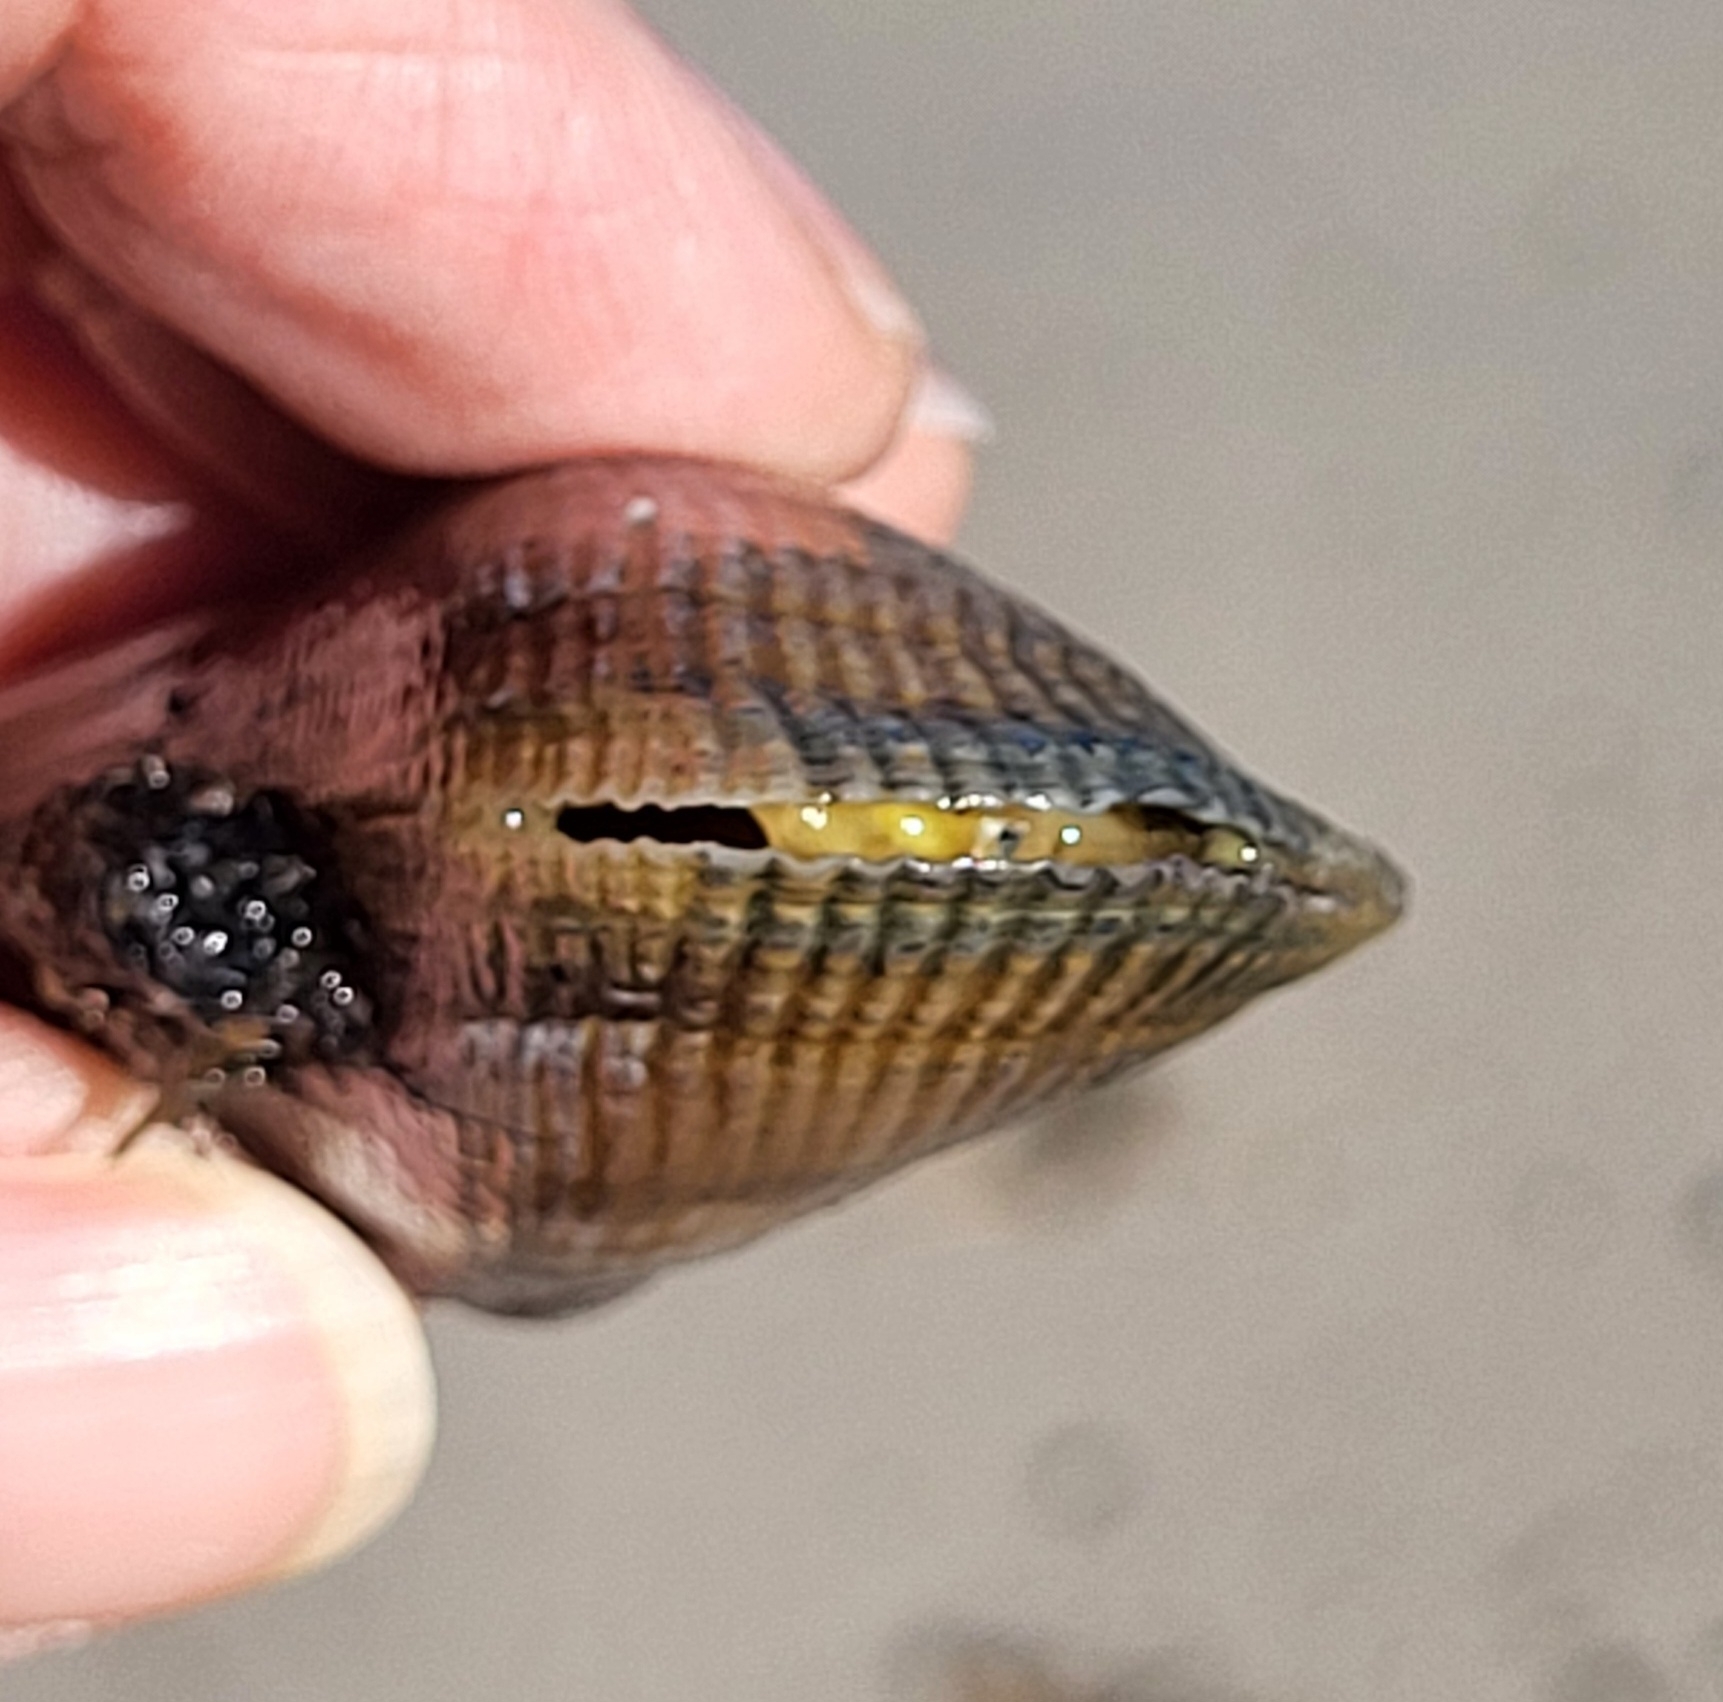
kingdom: Animalia
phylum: Mollusca
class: Bivalvia
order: Mytilida
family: Mytilidae
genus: Geukensia
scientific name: Geukensia demissa
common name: Ribbed mussel
